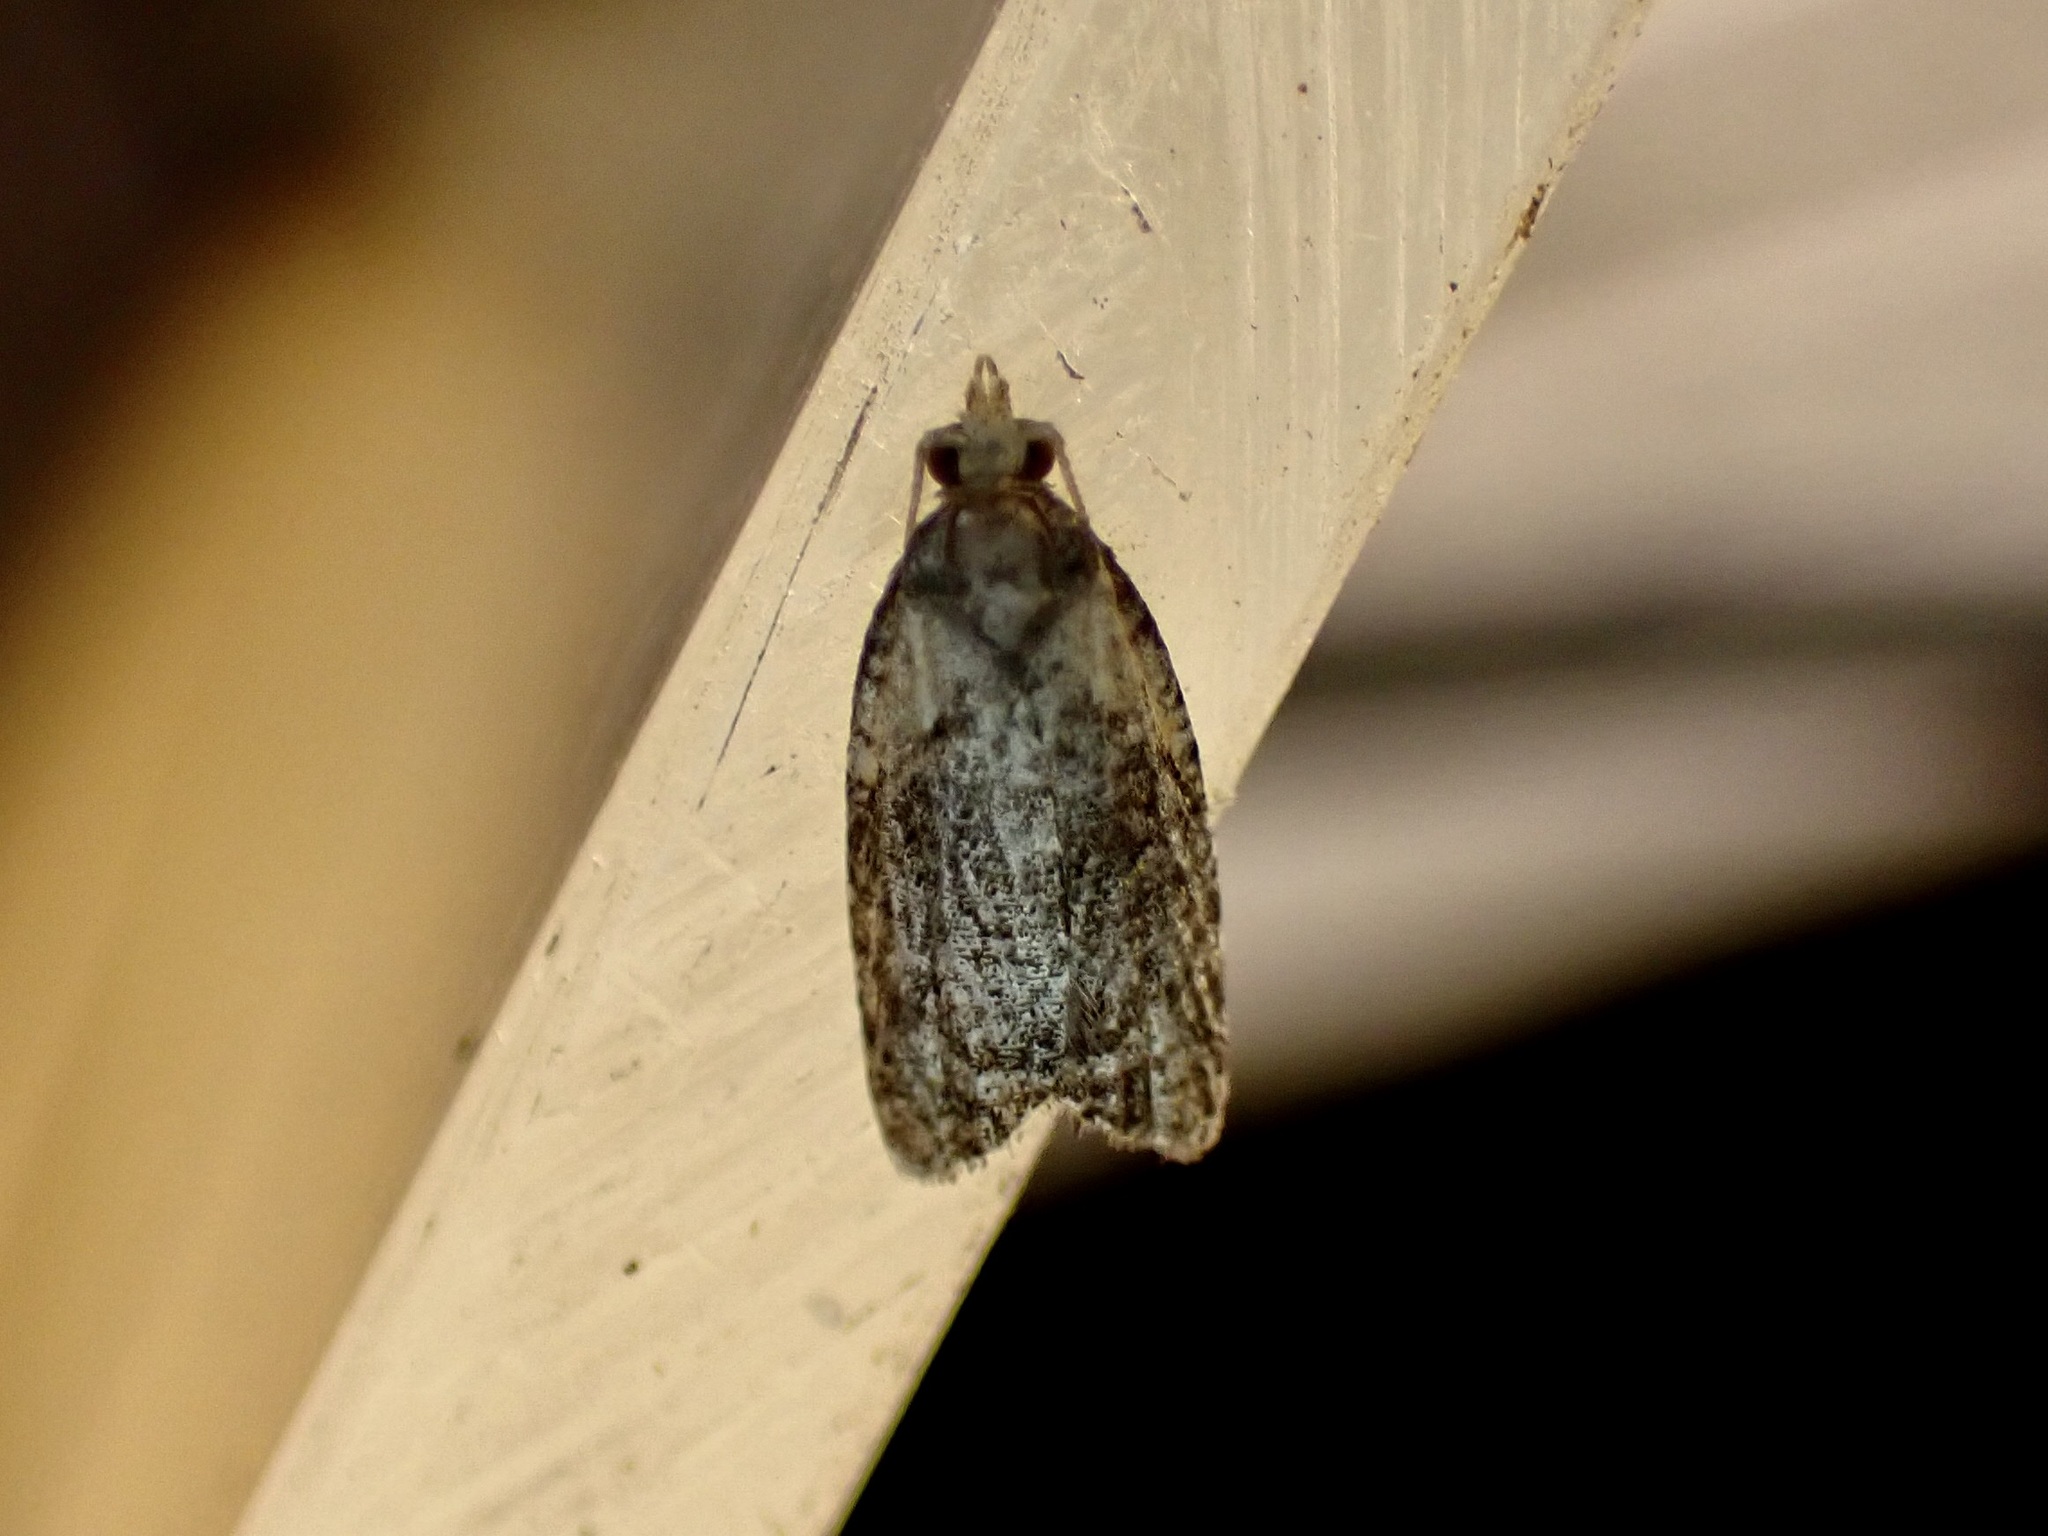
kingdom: Animalia
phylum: Arthropoda
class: Insecta
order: Lepidoptera
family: Tortricidae
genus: Capua
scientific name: Capua intractana
